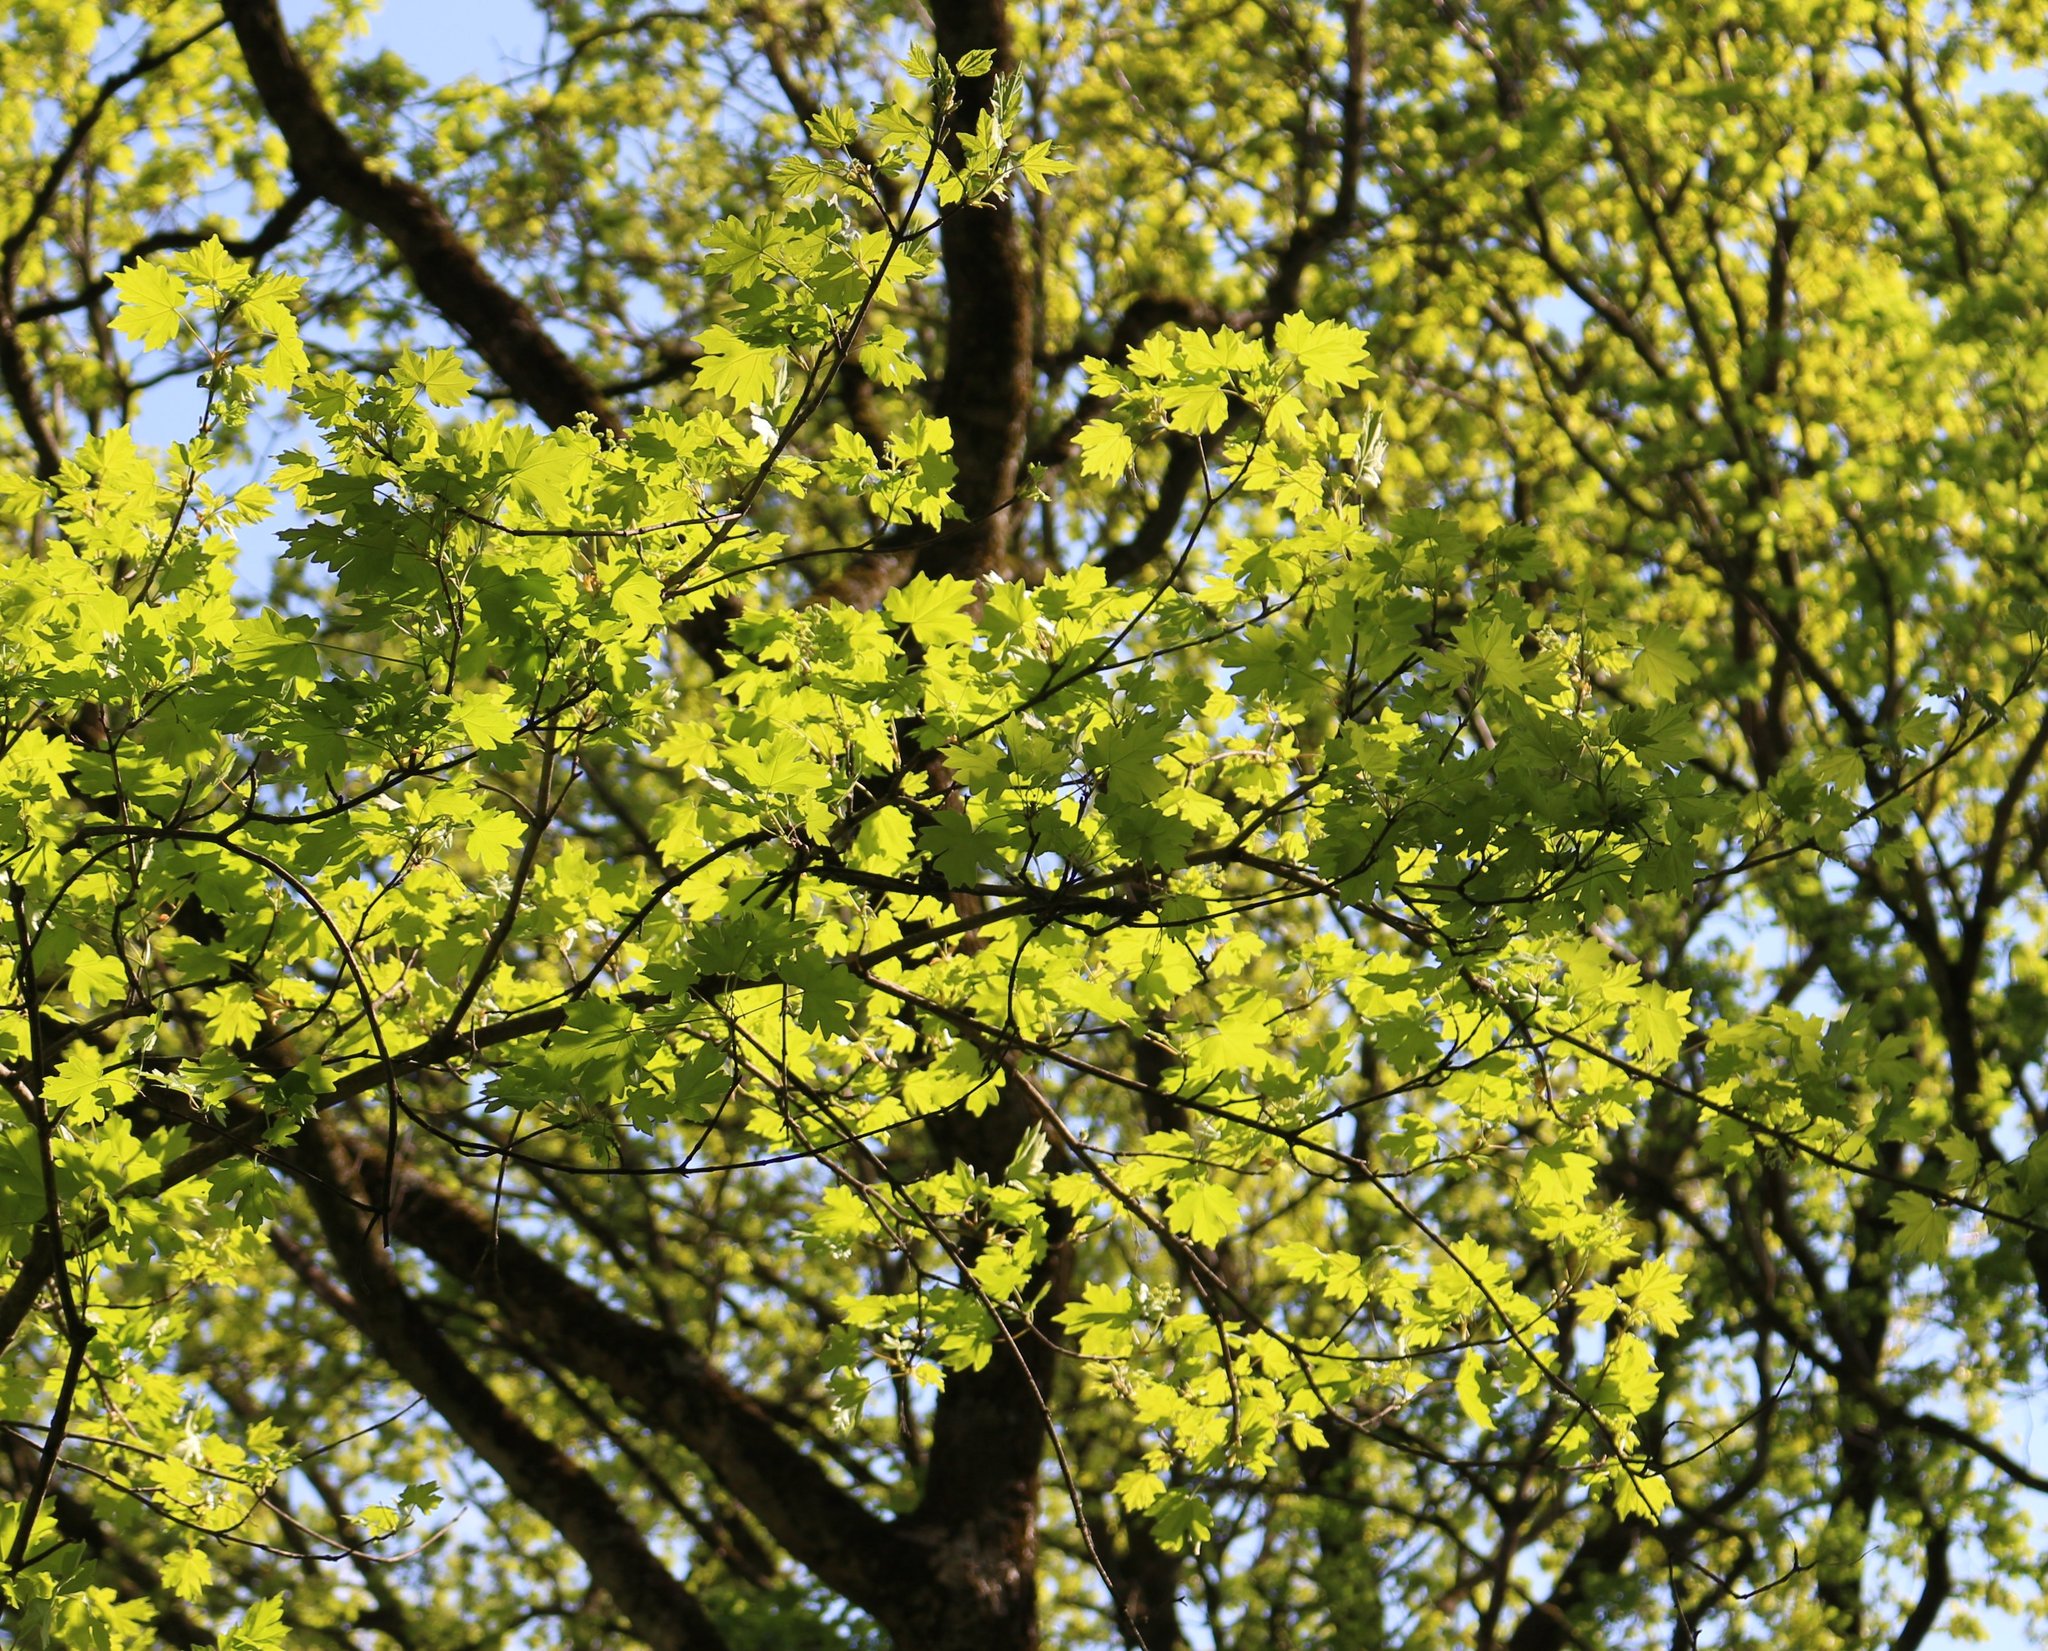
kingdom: Plantae
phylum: Tracheophyta
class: Magnoliopsida
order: Rosales
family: Rosaceae
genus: Crataegus
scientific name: Crataegus monogyna
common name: Hawthorn
